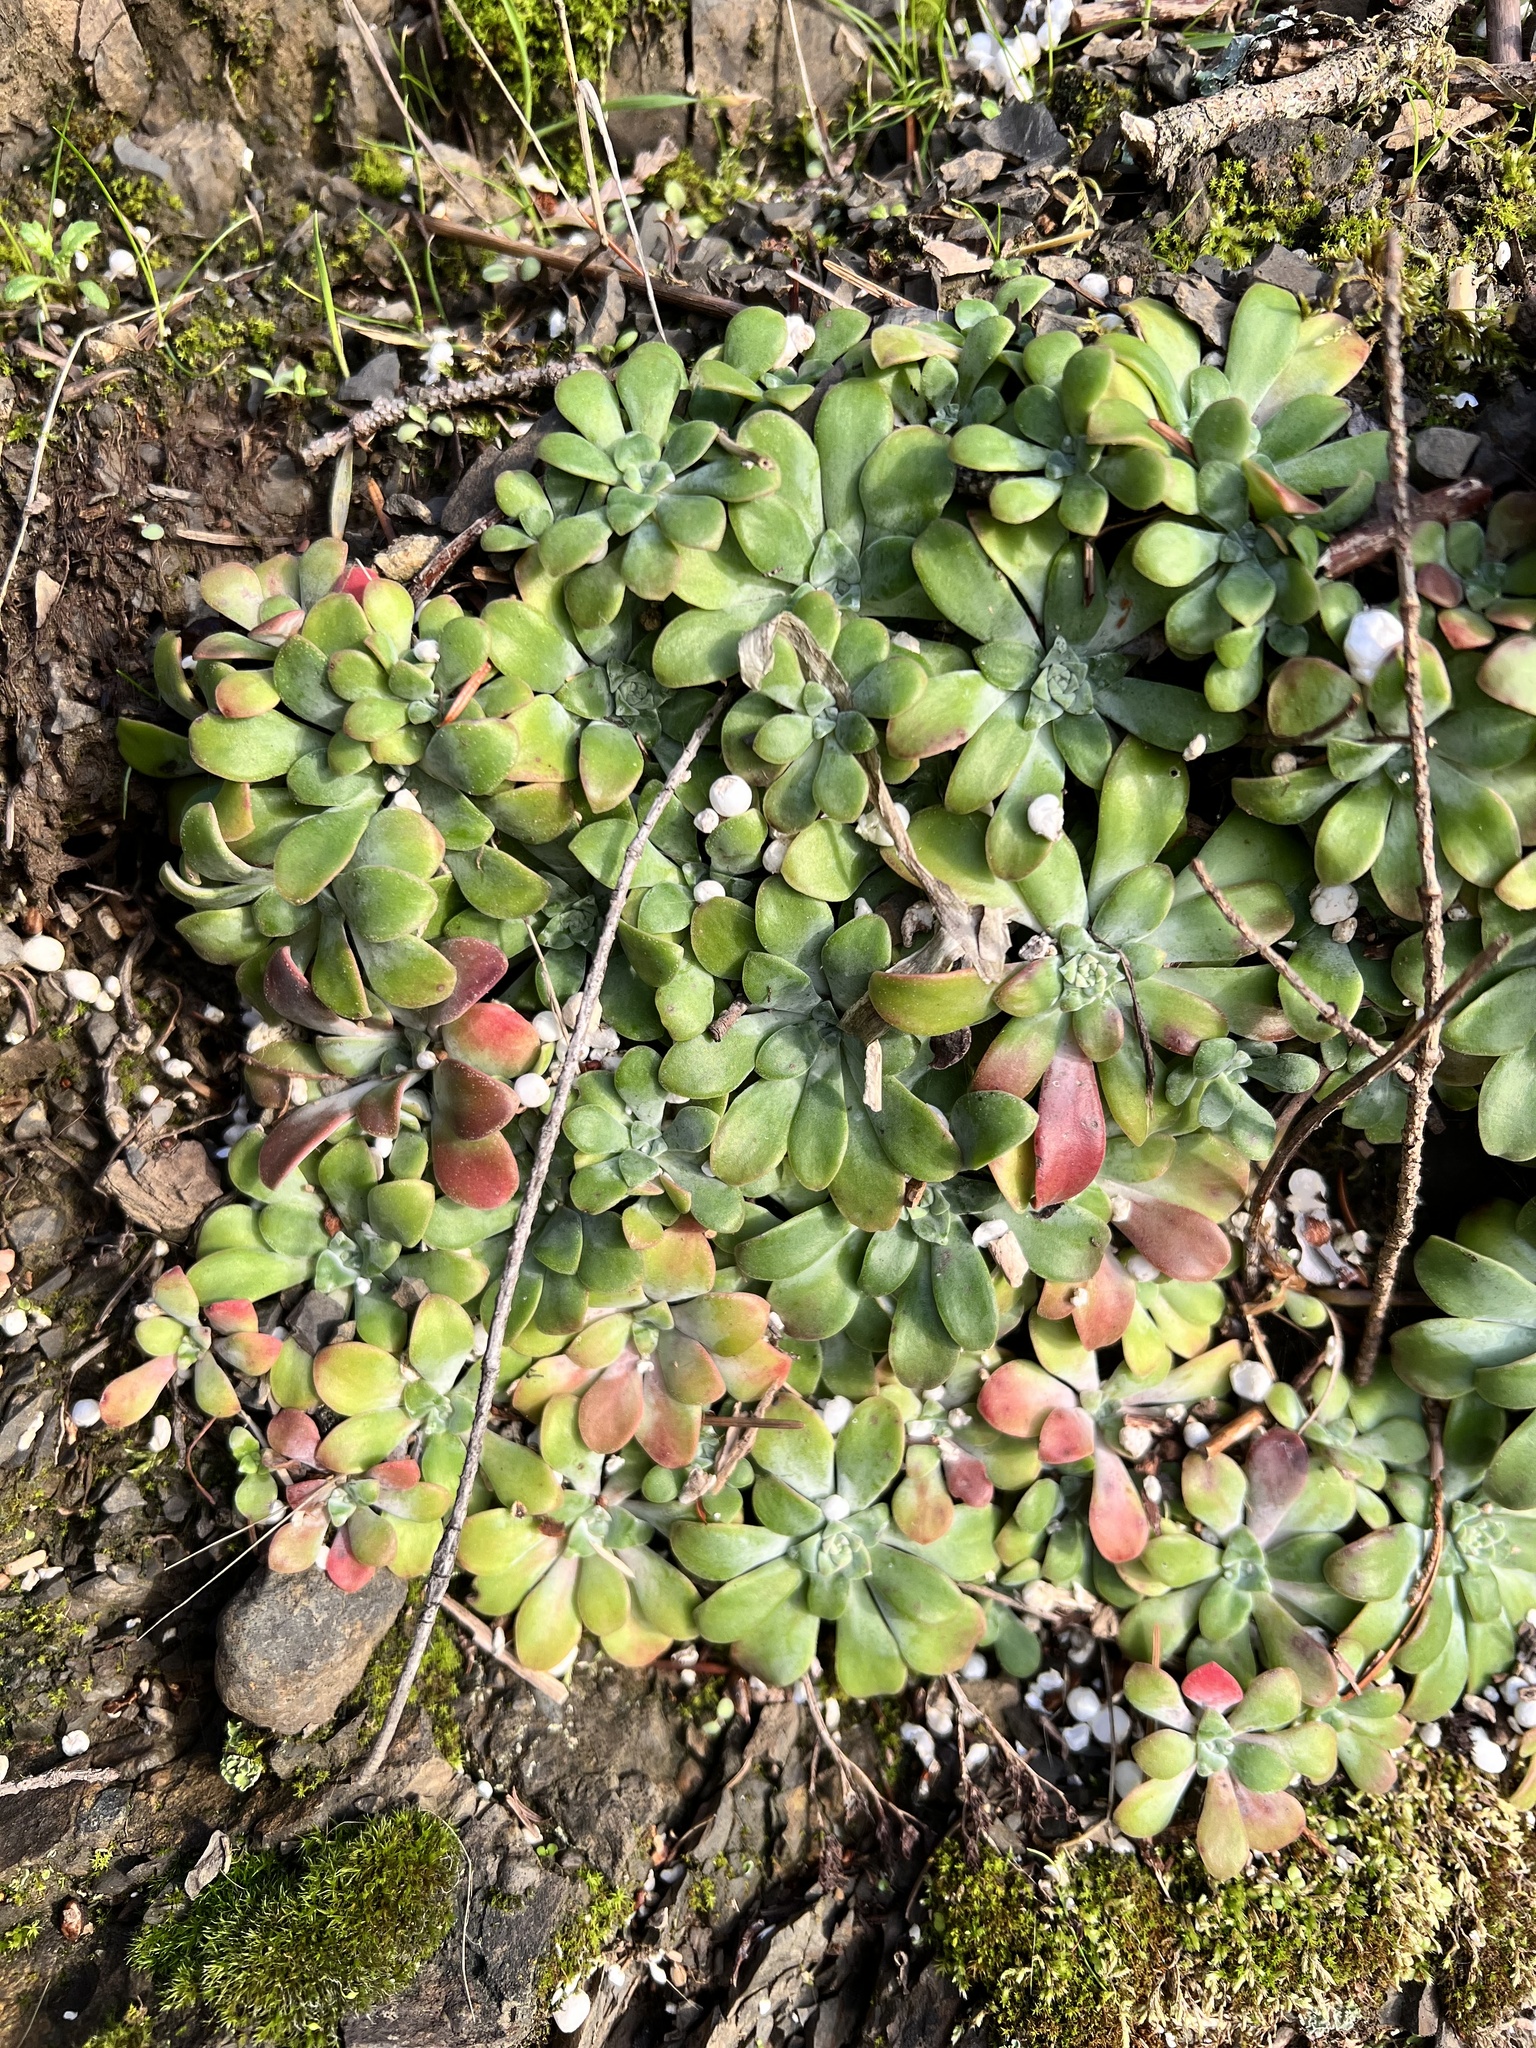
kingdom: Plantae
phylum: Tracheophyta
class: Magnoliopsida
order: Saxifragales
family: Crassulaceae
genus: Sedum
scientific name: Sedum spathulifolium
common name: Colorado stonecrop
